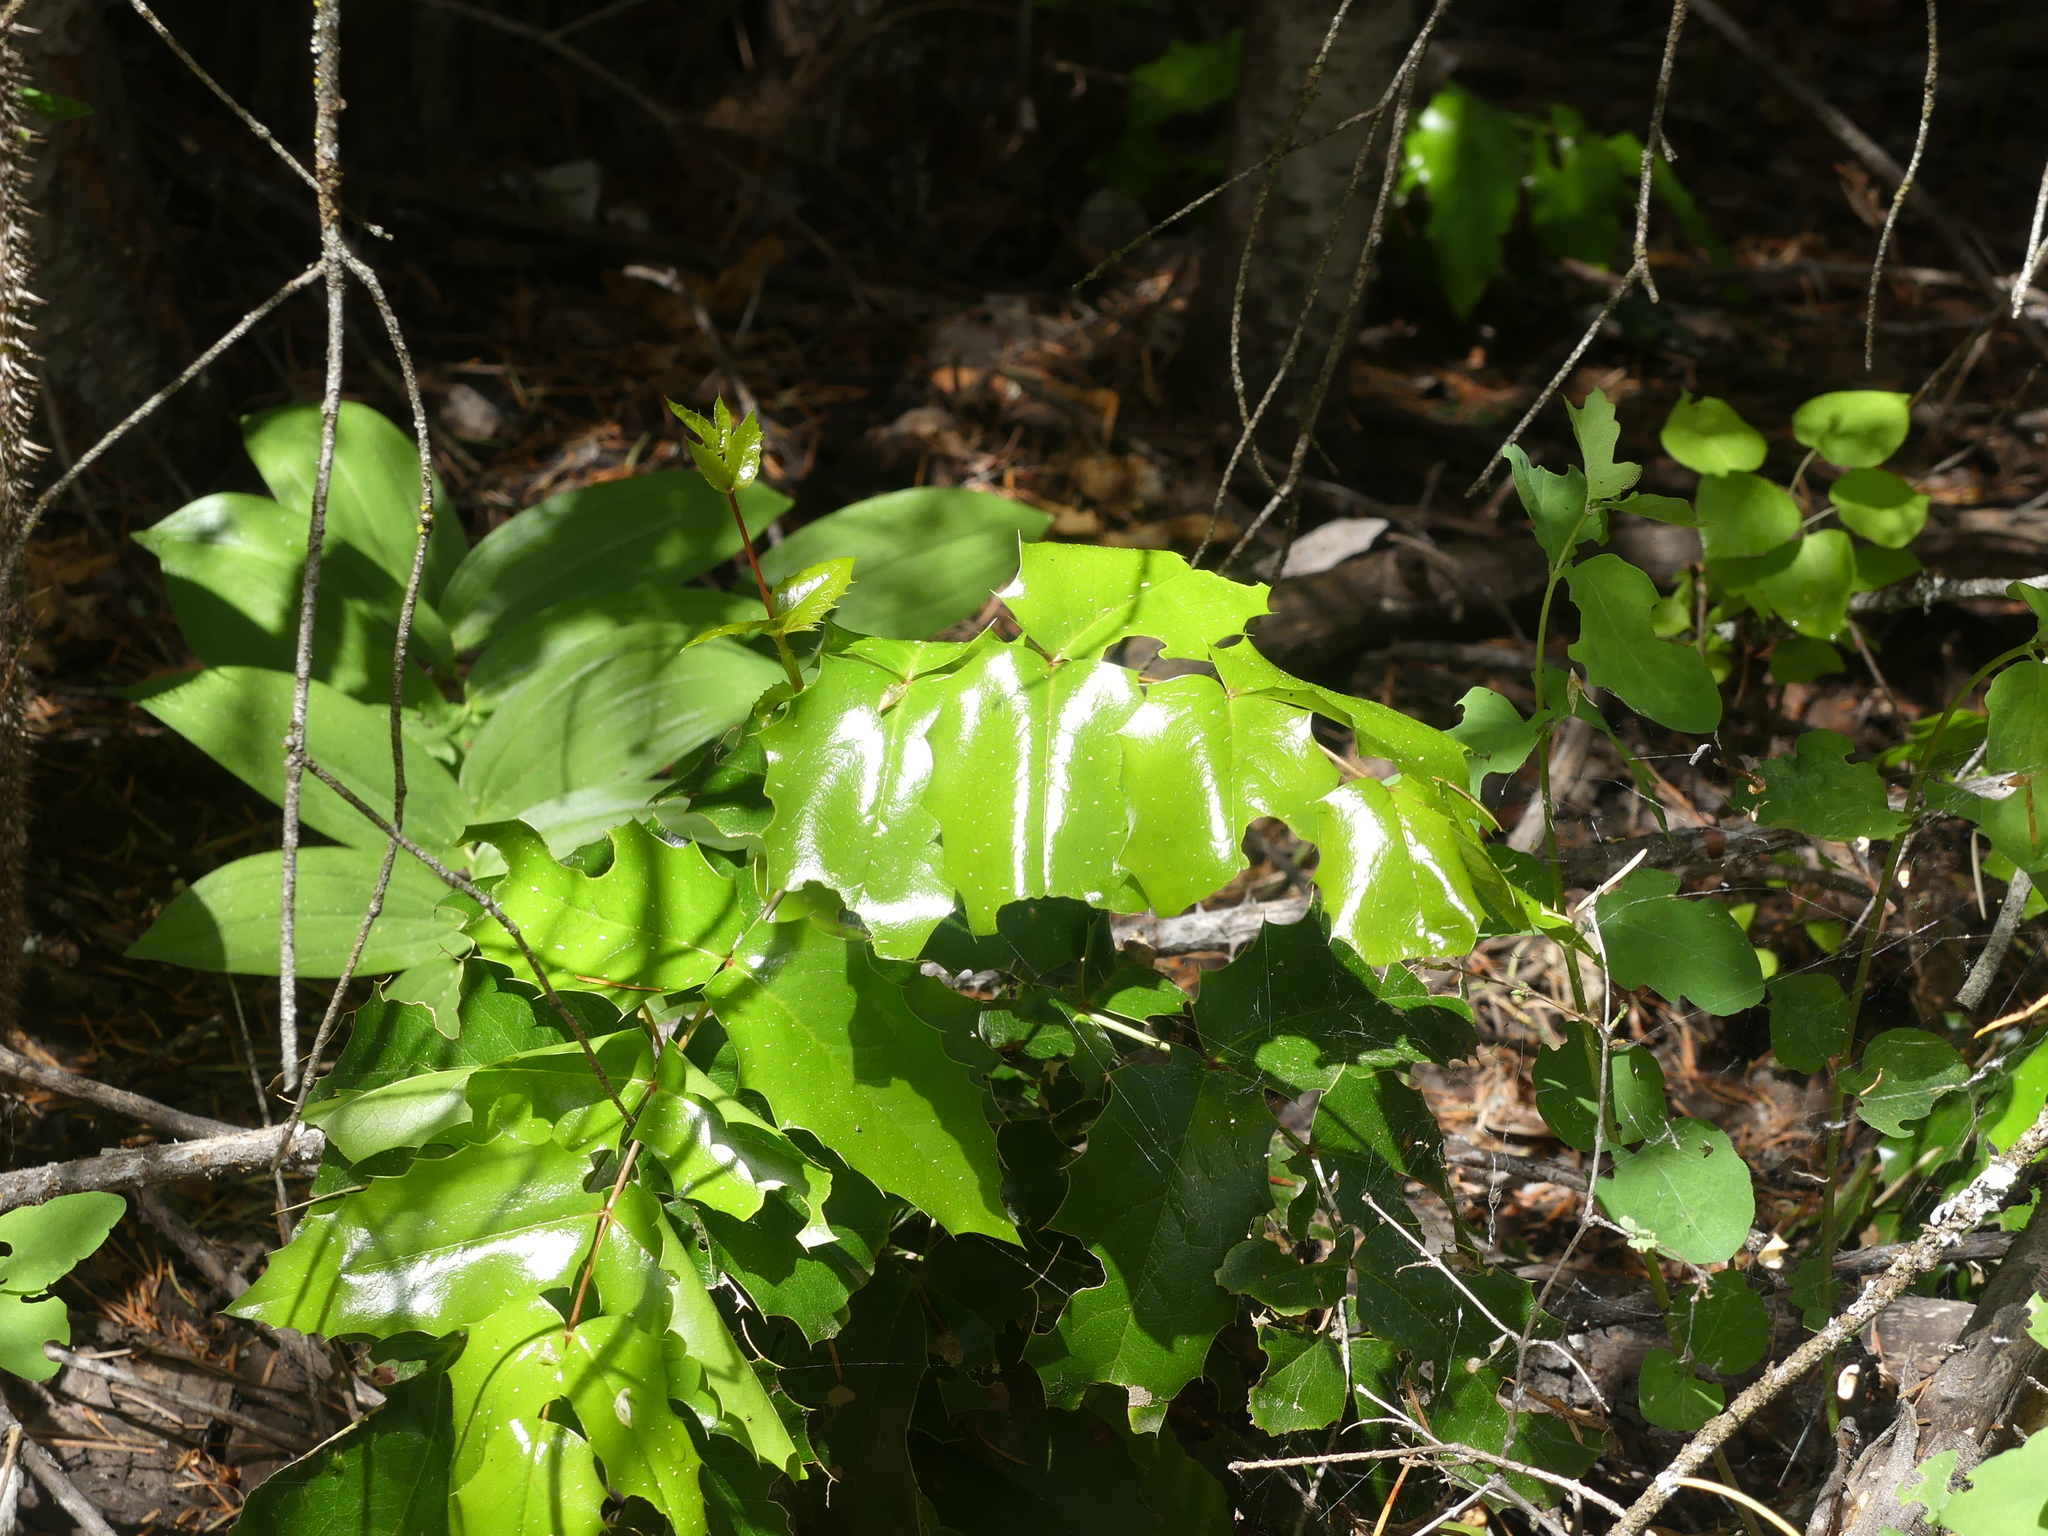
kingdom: Plantae
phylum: Tracheophyta
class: Magnoliopsida
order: Ranunculales
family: Berberidaceae
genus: Mahonia
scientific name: Mahonia aquifolium
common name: Oregon-grape
